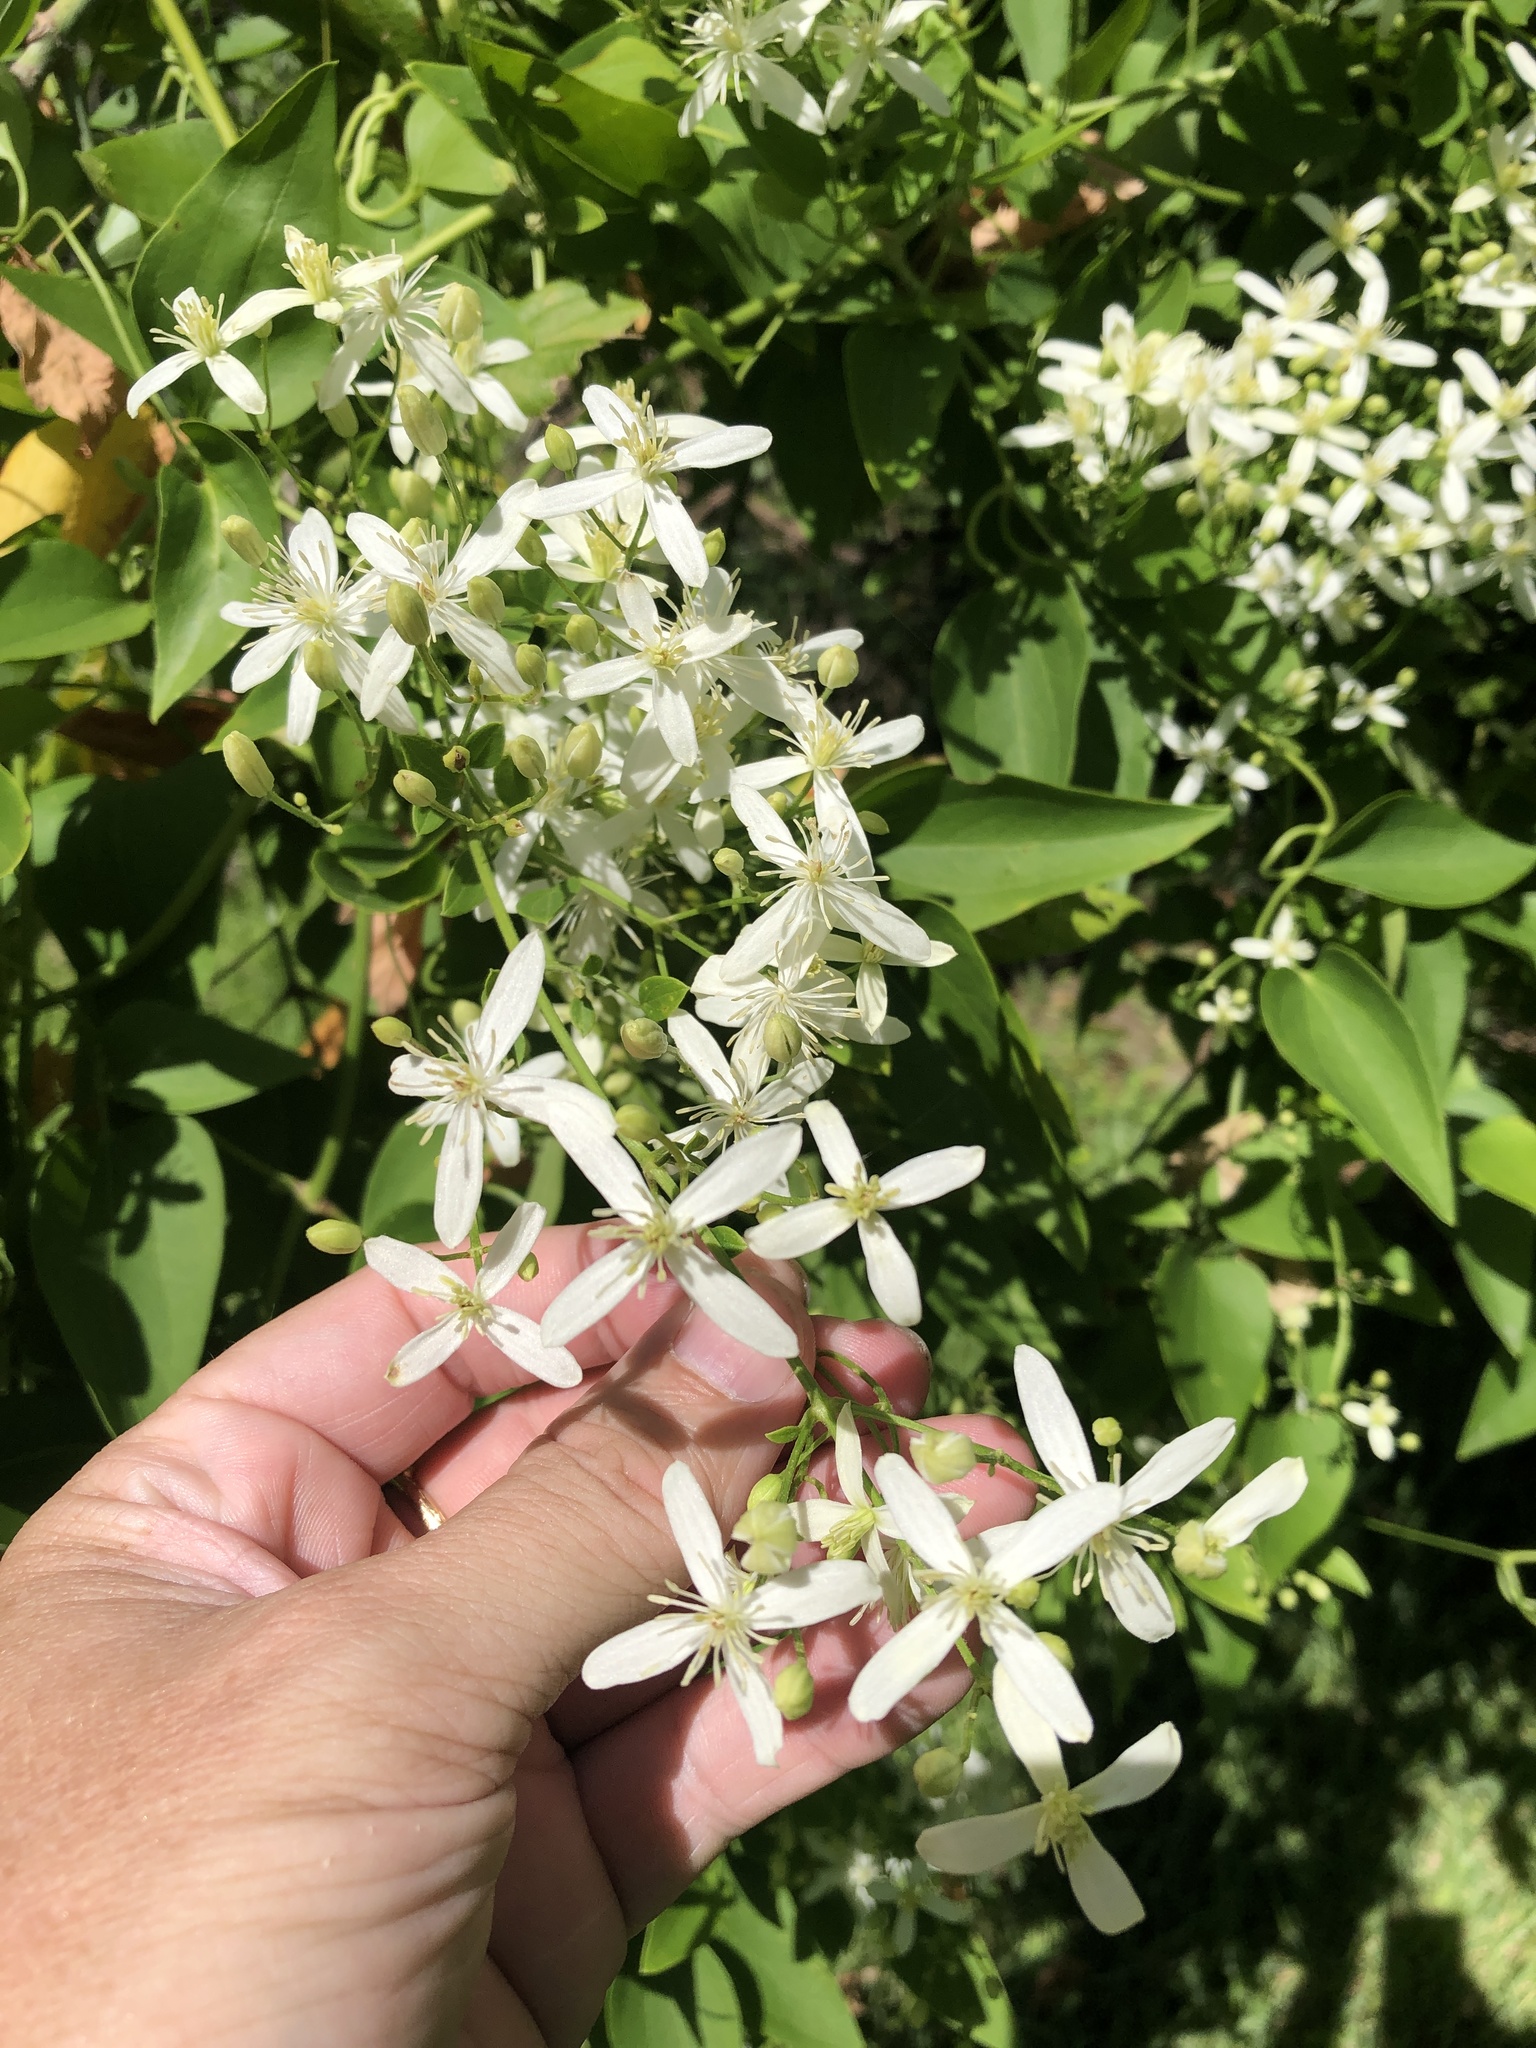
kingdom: Plantae
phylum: Tracheophyta
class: Magnoliopsida
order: Ranunculales
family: Ranunculaceae
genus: Clematis
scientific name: Clematis terniflora
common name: Sweet autumn clematis
